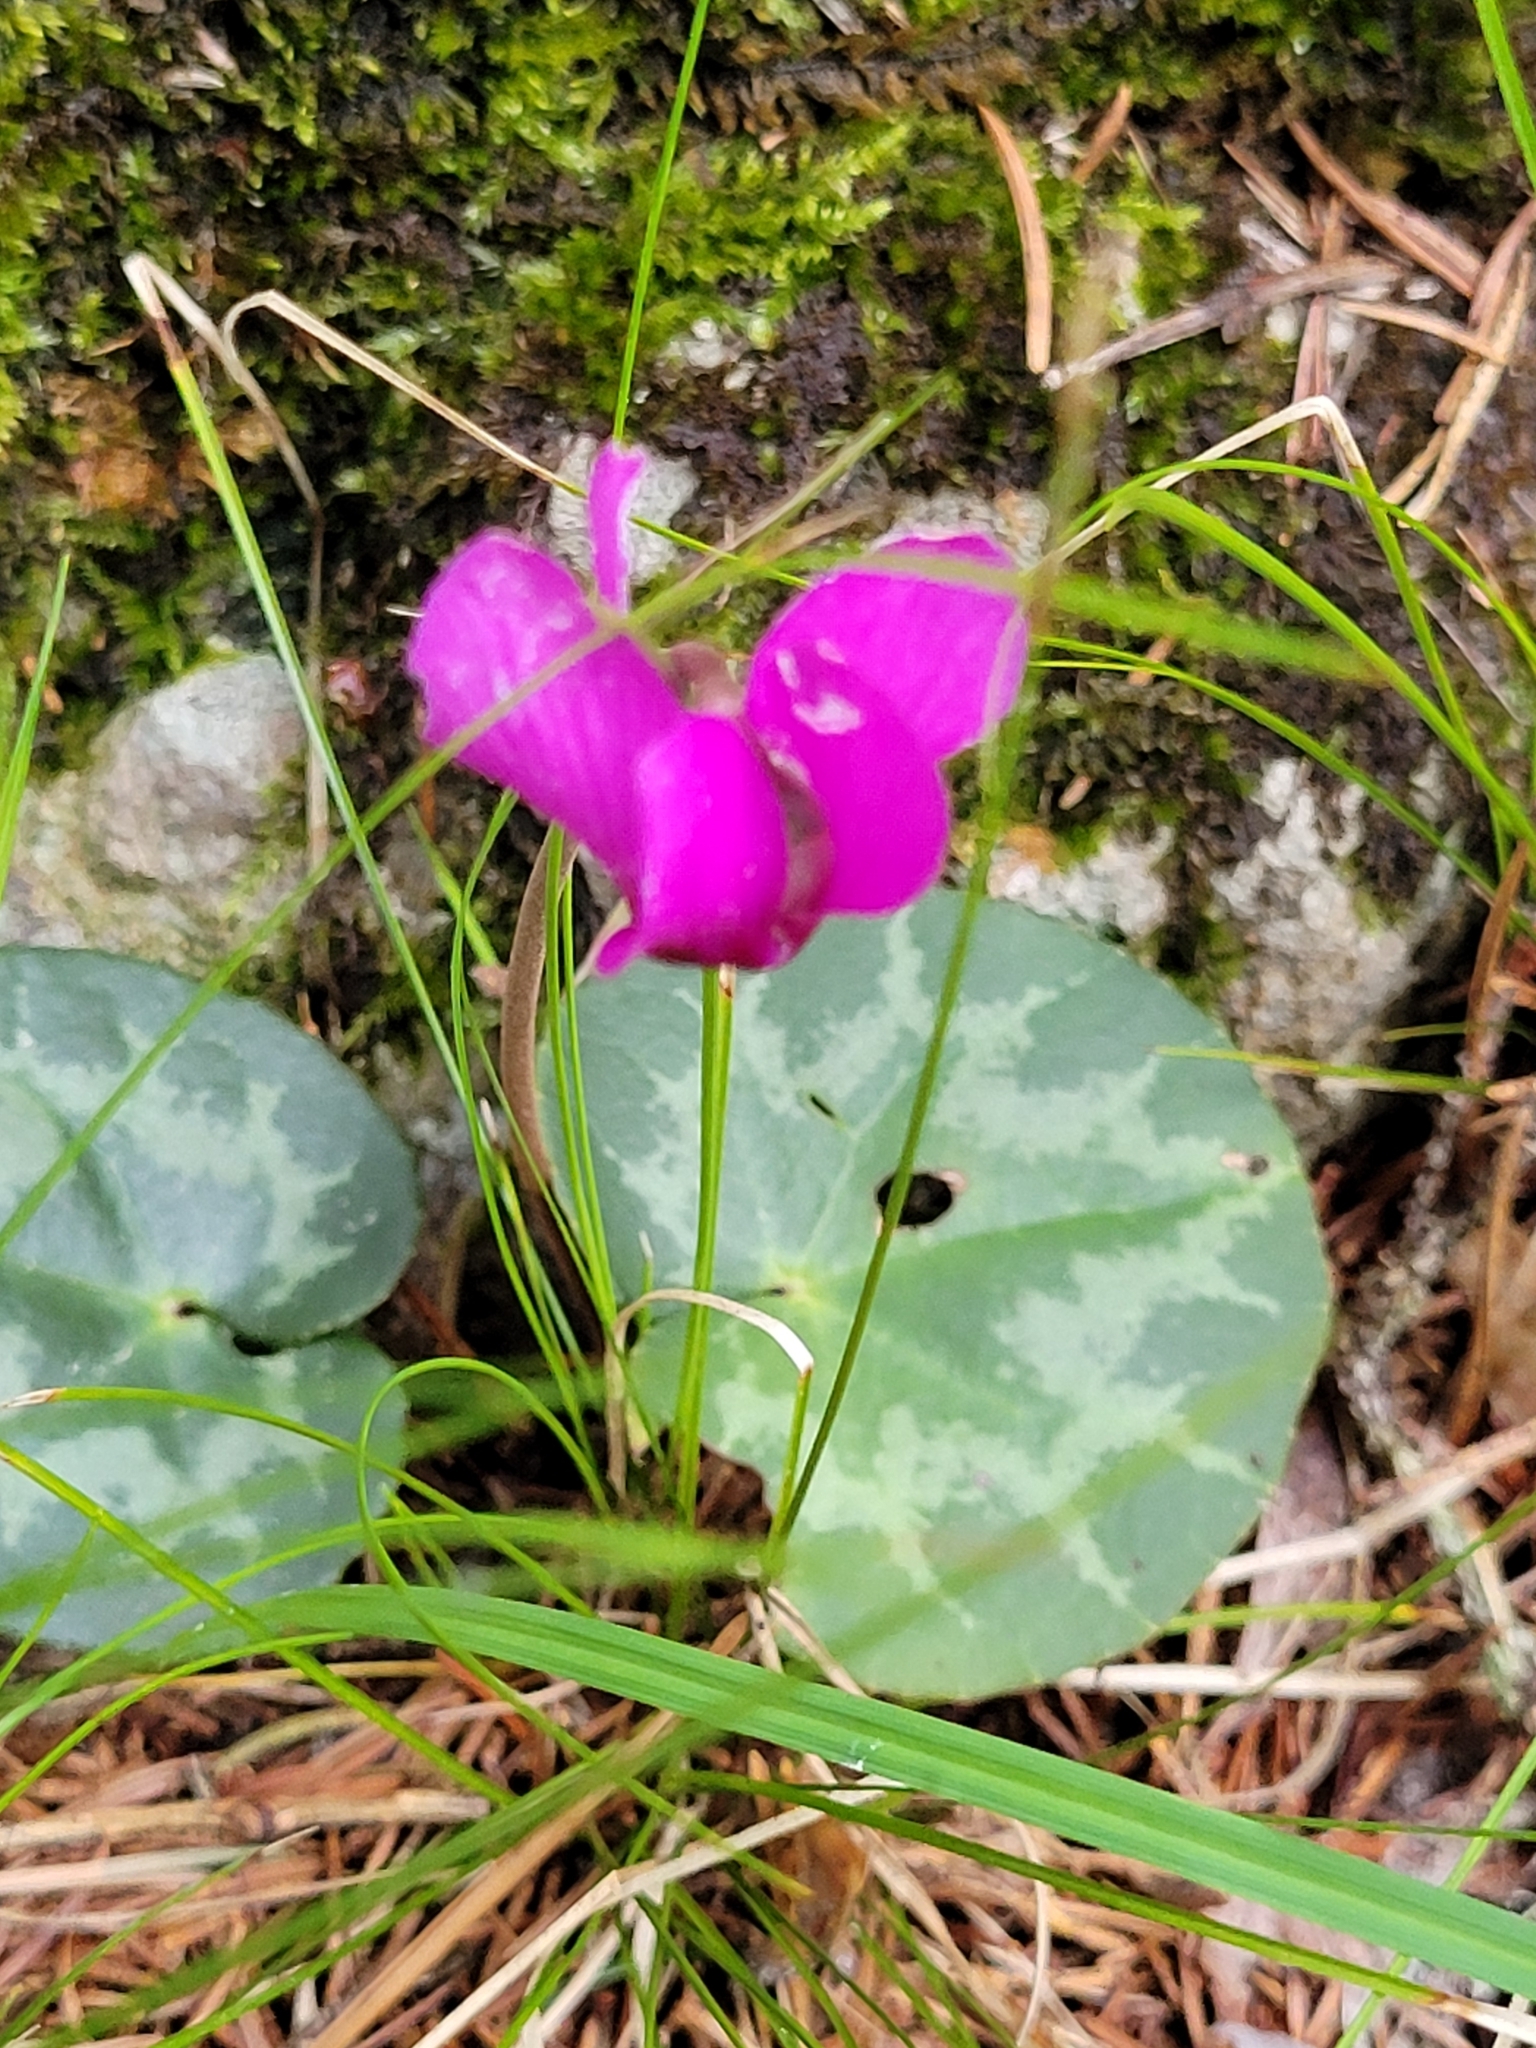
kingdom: Plantae
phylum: Tracheophyta
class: Magnoliopsida
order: Ericales
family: Primulaceae
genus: Cyclamen
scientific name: Cyclamen purpurascens
